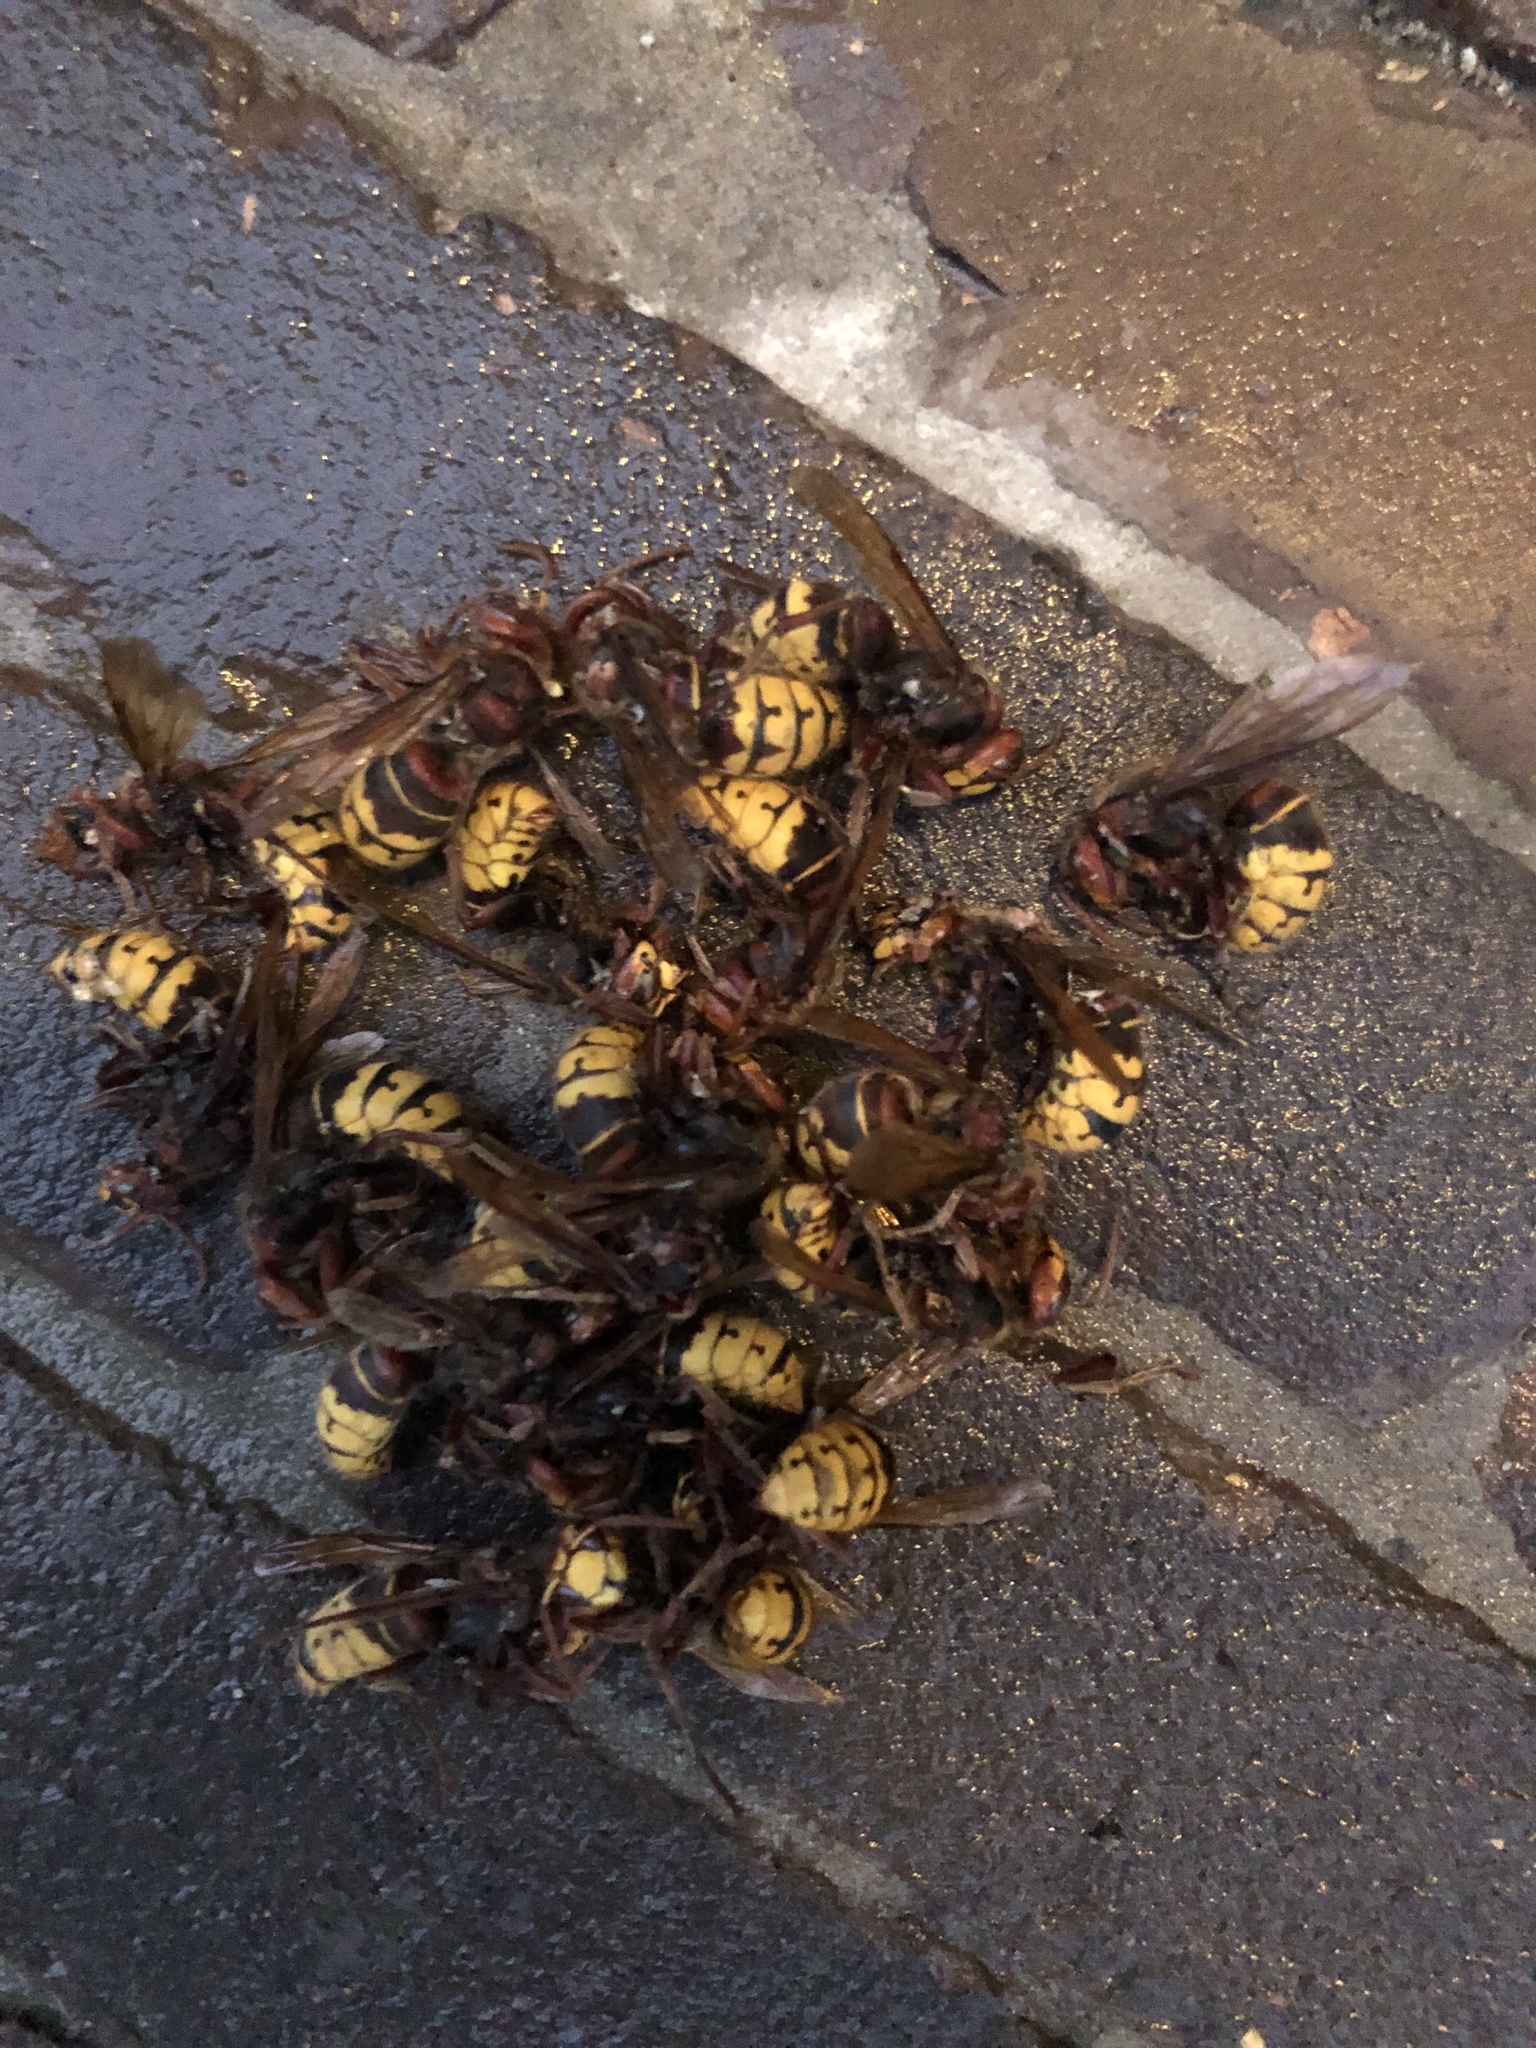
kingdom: Animalia
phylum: Arthropoda
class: Insecta
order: Hymenoptera
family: Vespidae
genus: Vespa
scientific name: Vespa crabro
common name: Hornet
